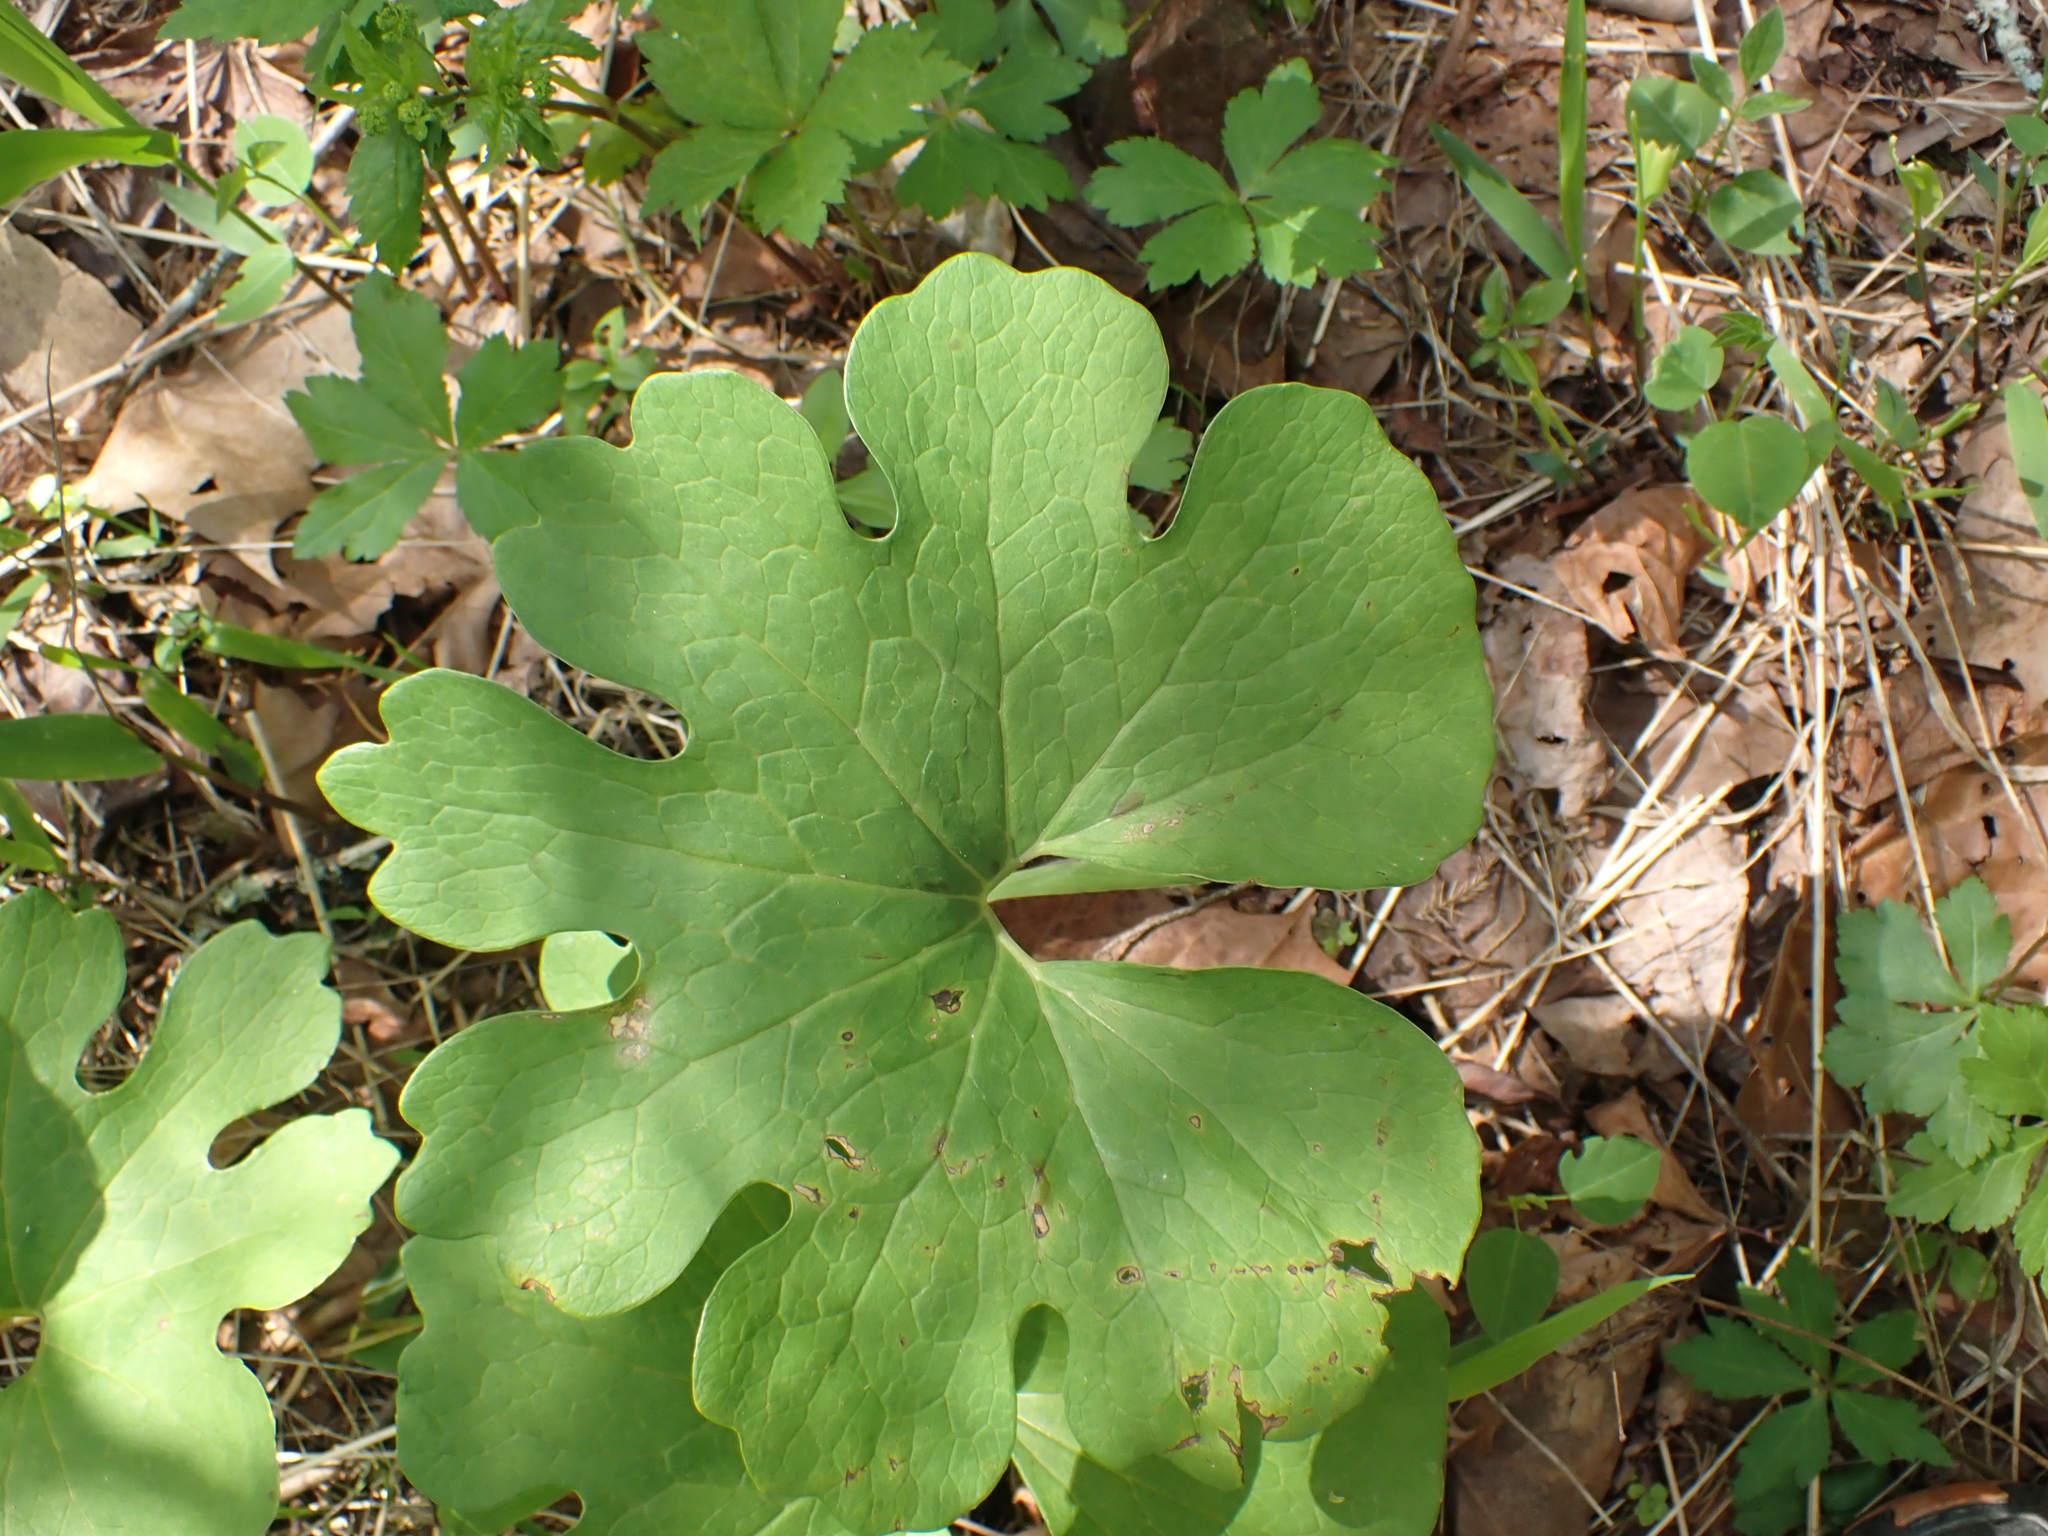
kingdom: Plantae
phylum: Tracheophyta
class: Magnoliopsida
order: Ranunculales
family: Papaveraceae
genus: Sanguinaria
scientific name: Sanguinaria canadensis
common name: Bloodroot
